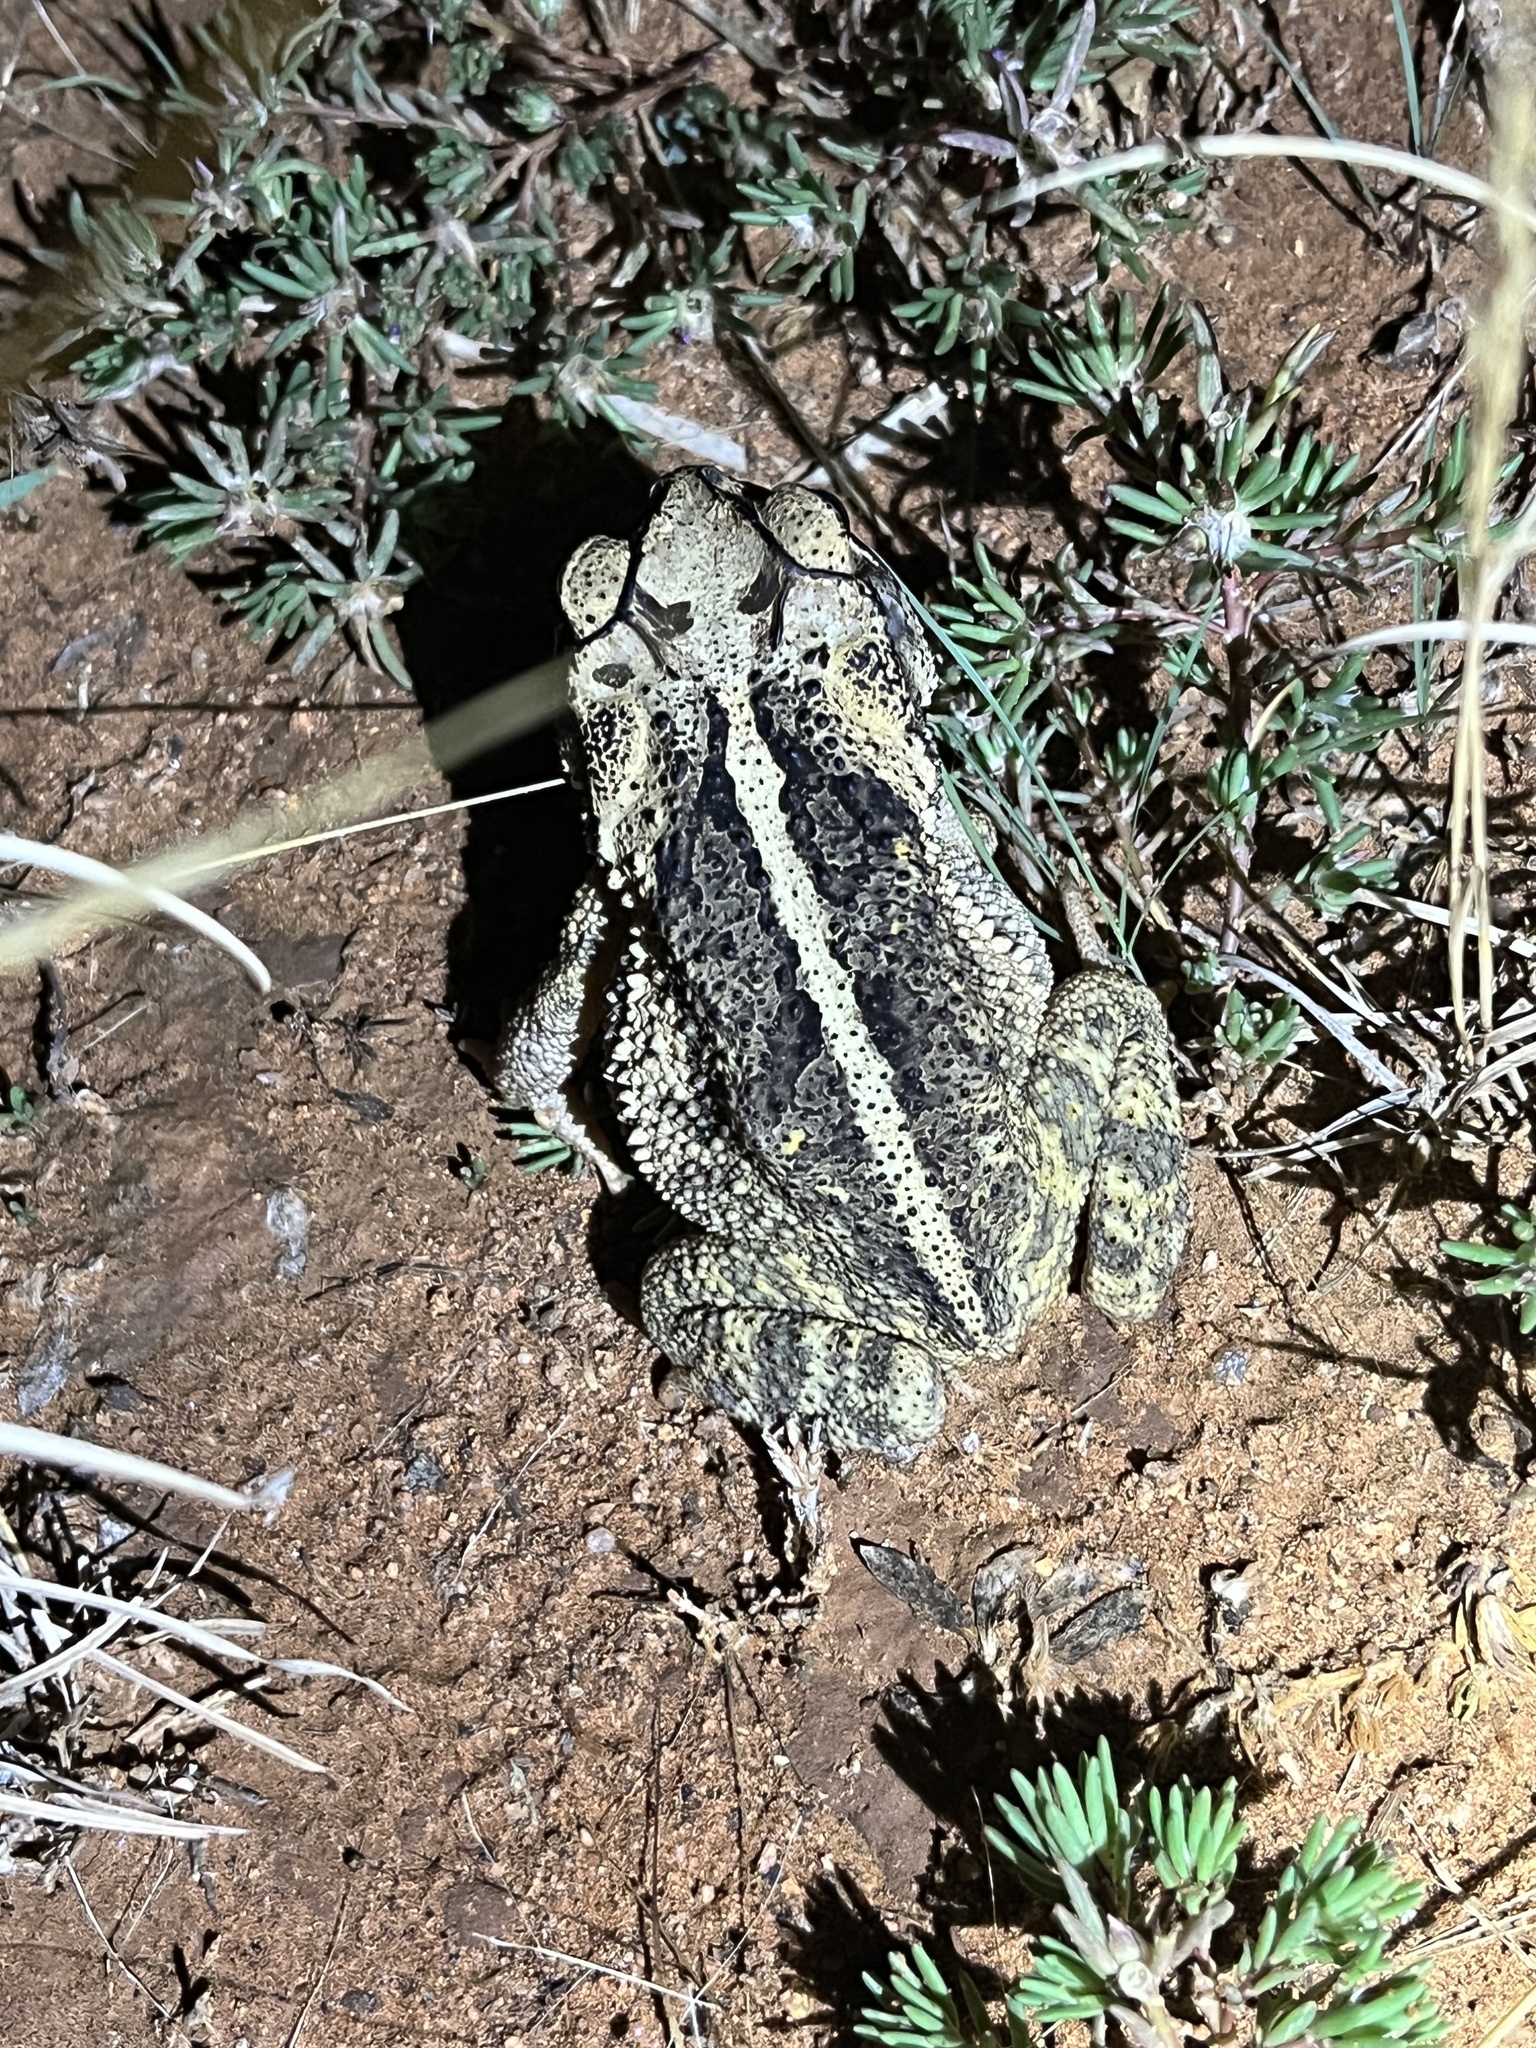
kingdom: Animalia
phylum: Chordata
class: Amphibia
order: Anura
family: Bufonidae
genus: Incilius
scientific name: Incilius nebulifer
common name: Gulf coast toad
